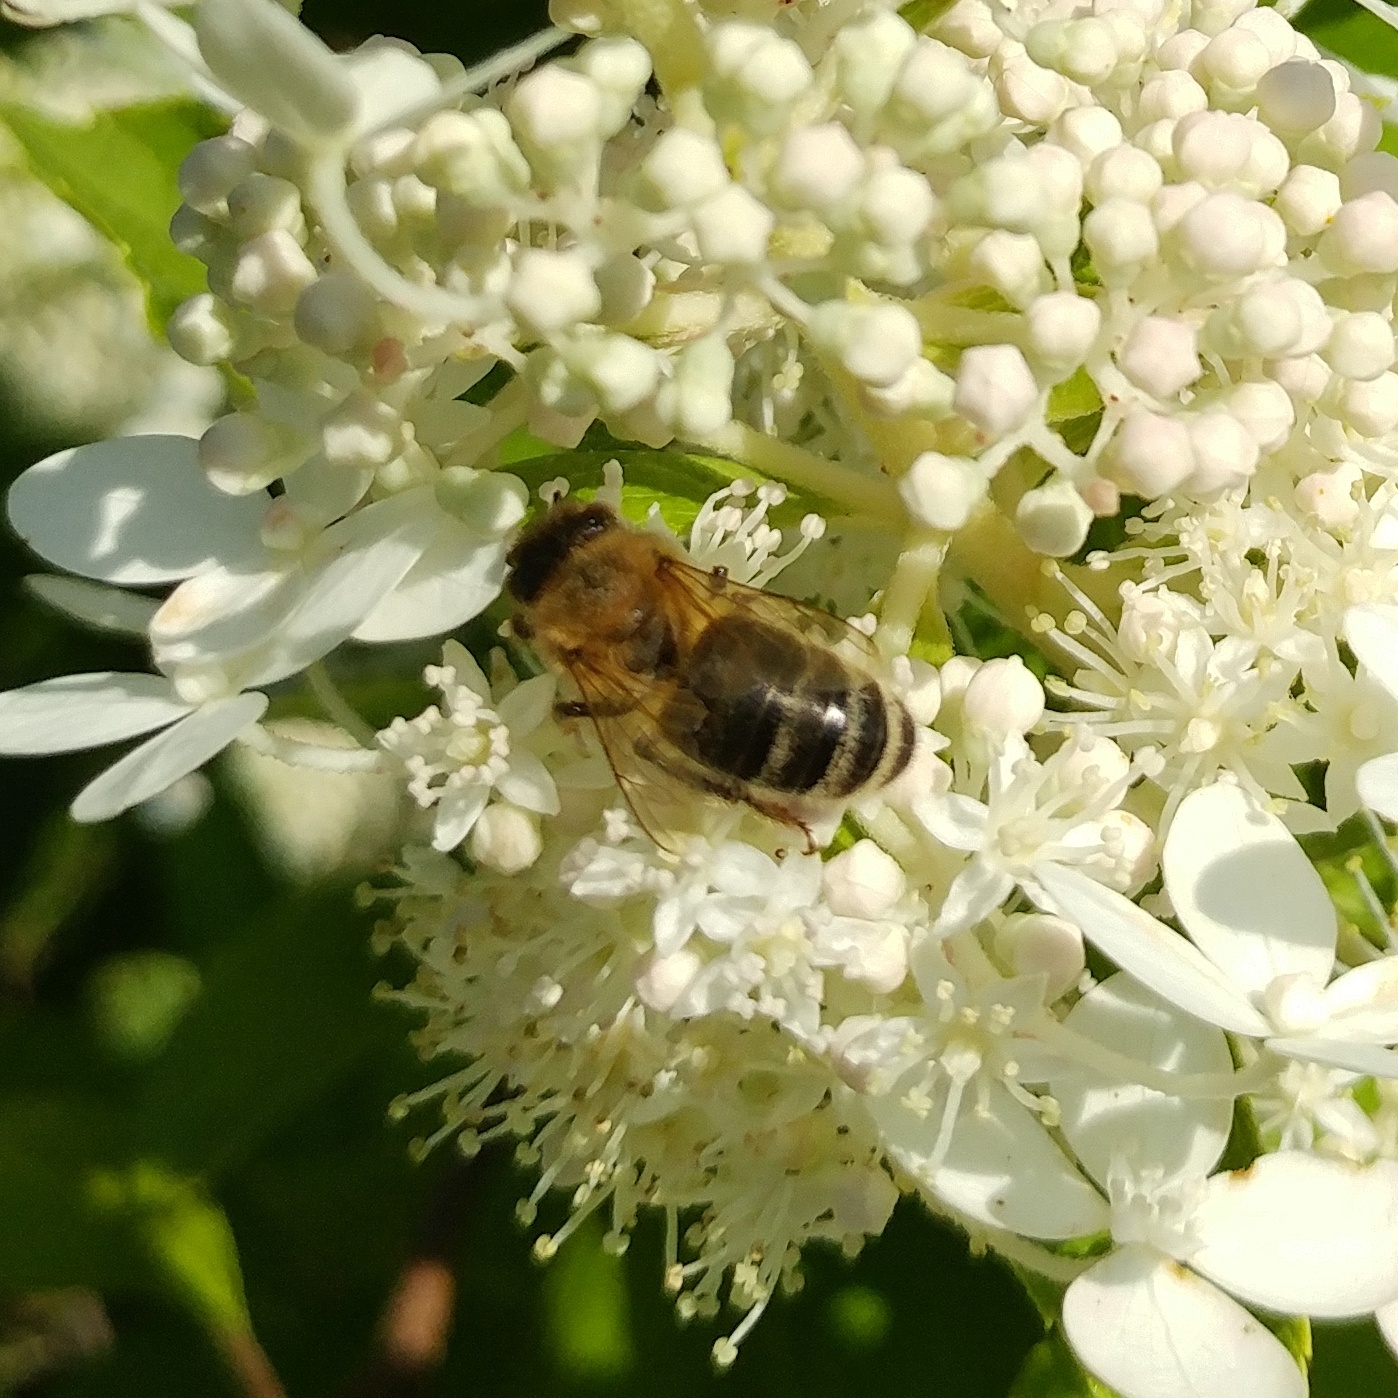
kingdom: Animalia
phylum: Arthropoda
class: Insecta
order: Hymenoptera
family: Apidae
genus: Apis
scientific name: Apis mellifera
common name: Honey bee
